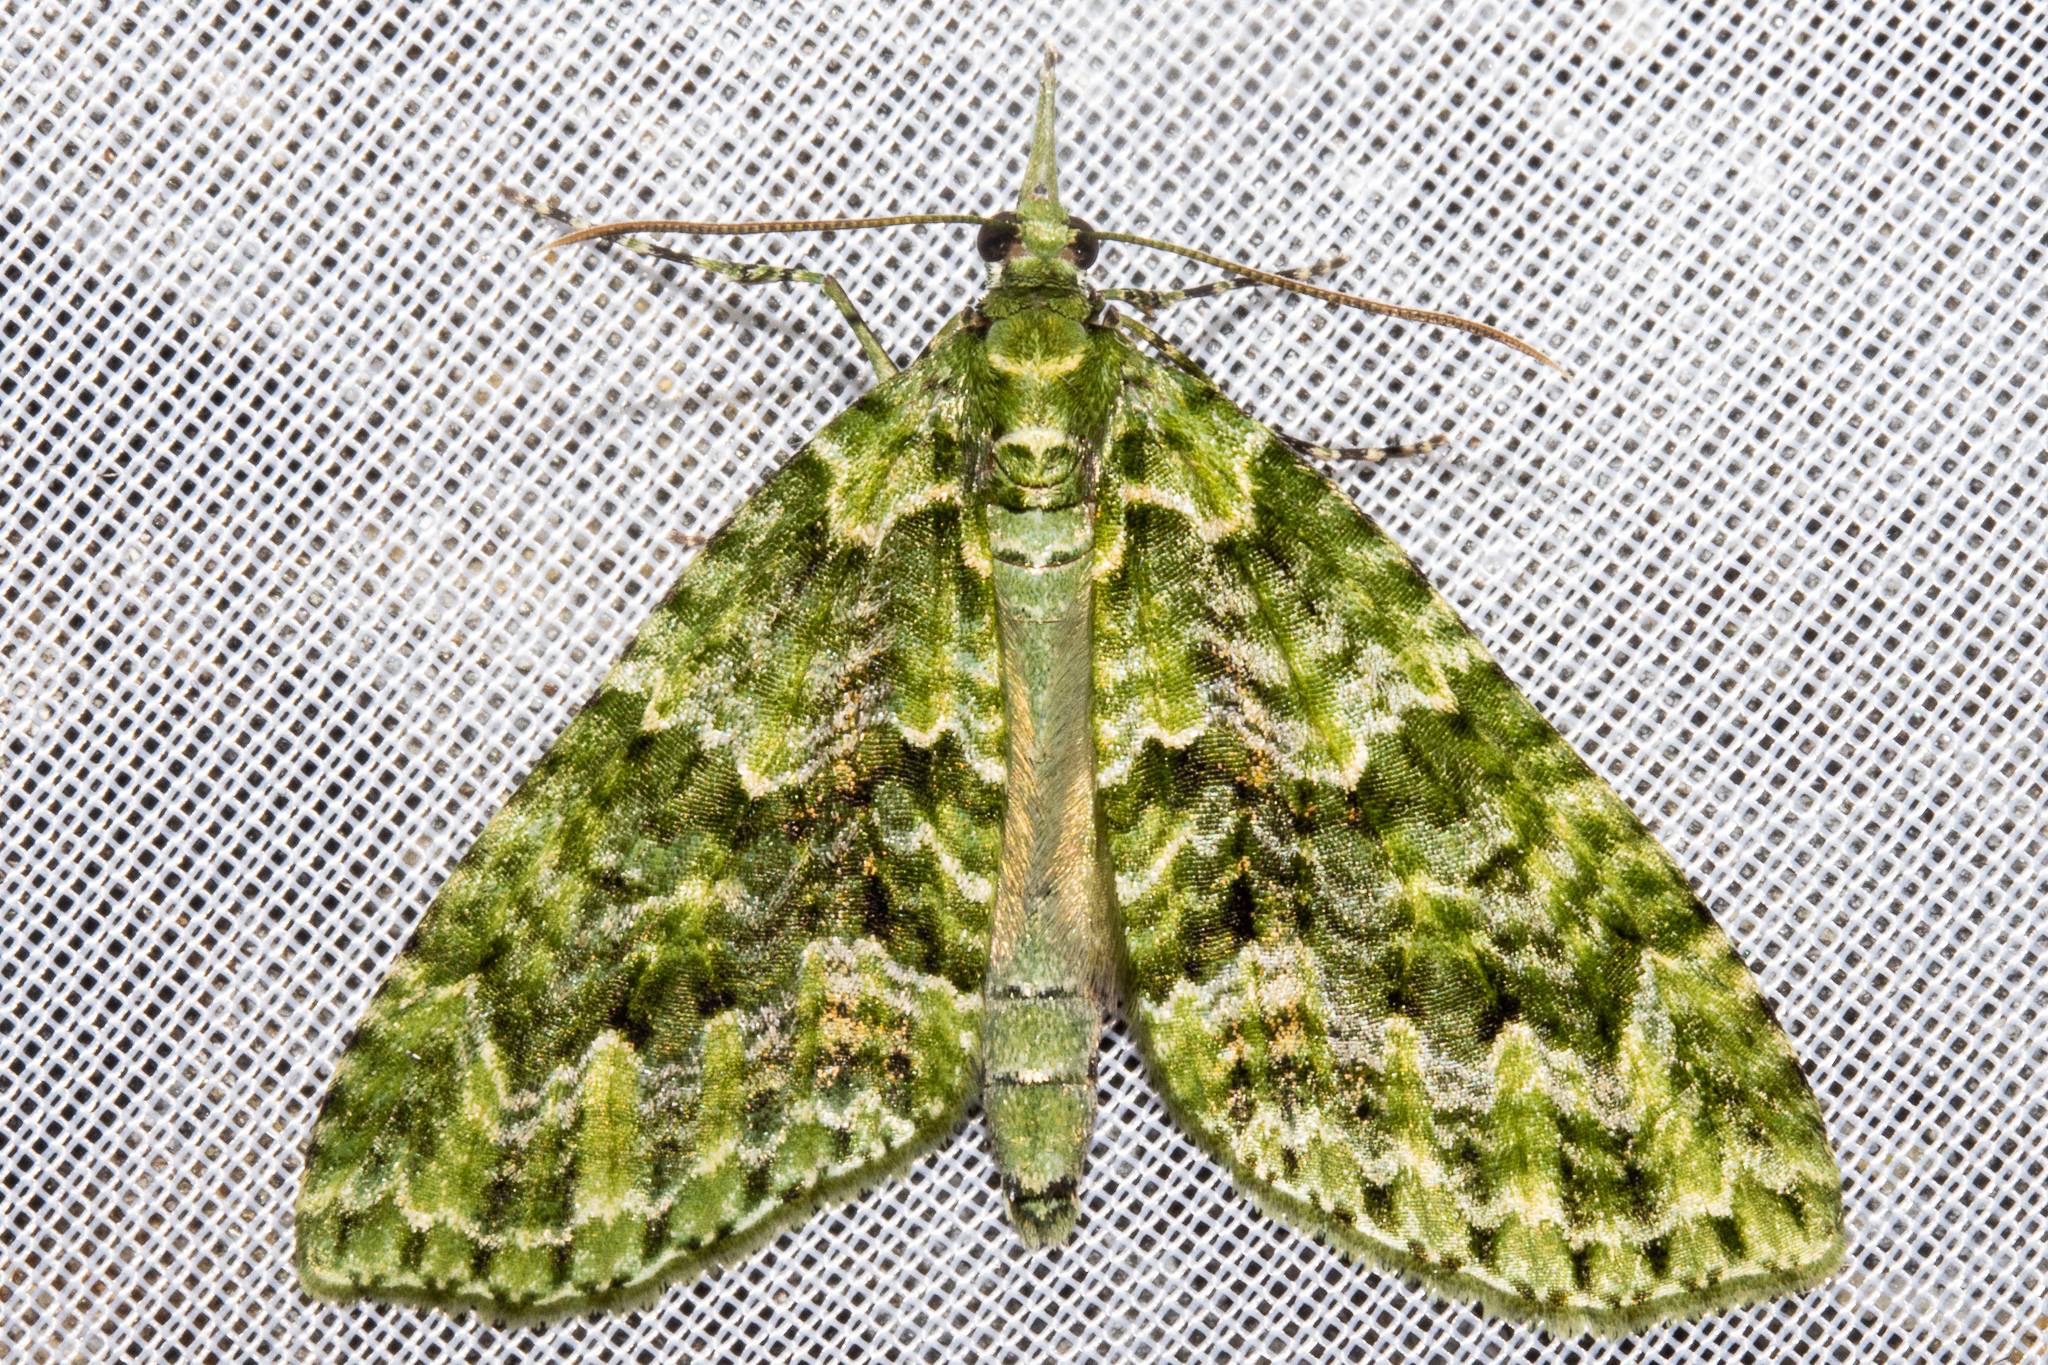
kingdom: Animalia
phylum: Arthropoda
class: Insecta
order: Lepidoptera
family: Geometridae
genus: Tatosoma
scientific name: Tatosoma tipulata
